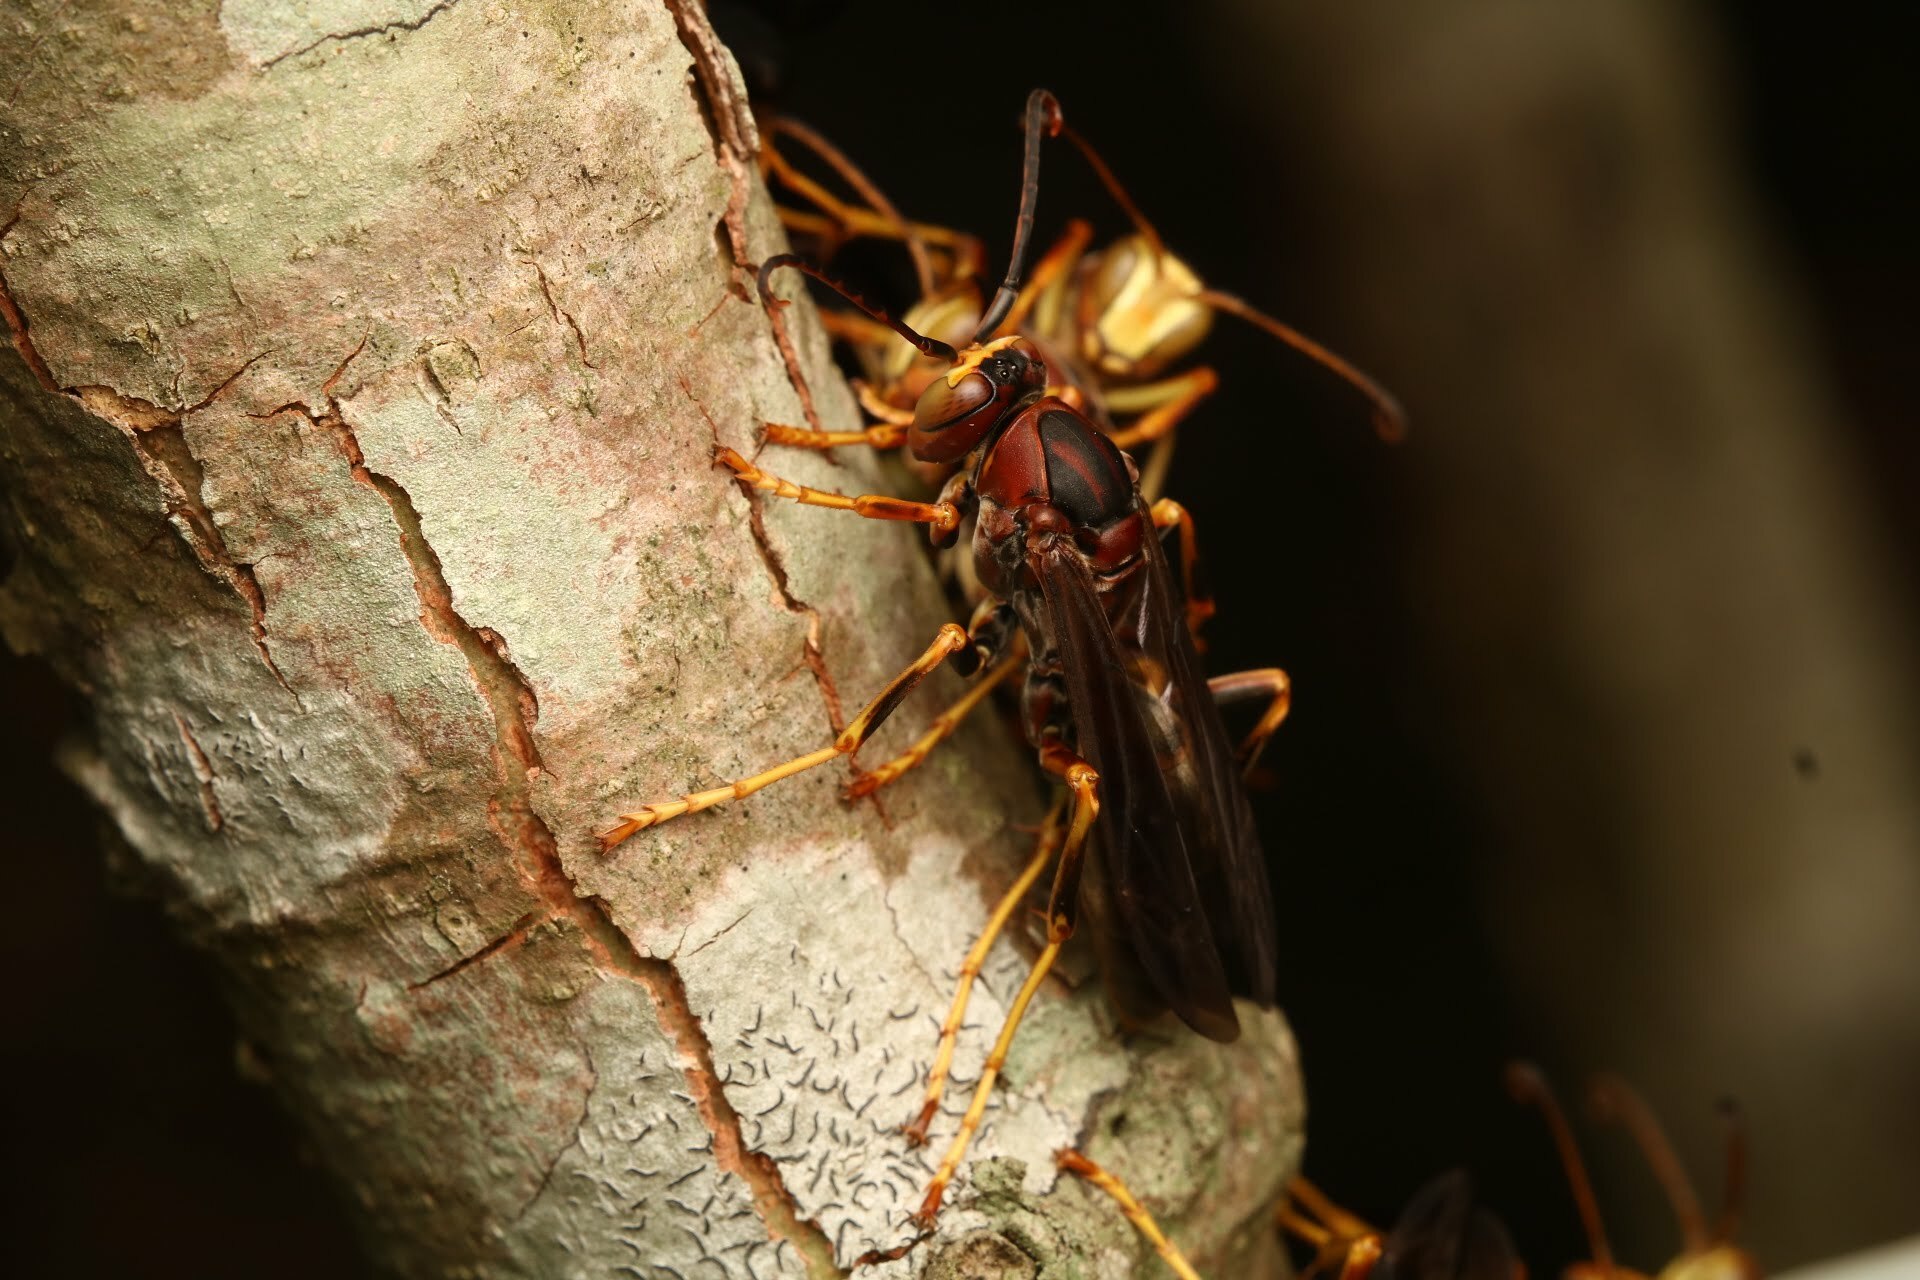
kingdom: Animalia
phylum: Arthropoda
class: Insecta
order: Hymenoptera
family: Eumenidae
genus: Polistes
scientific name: Polistes metricus
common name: Metric paper wasp
